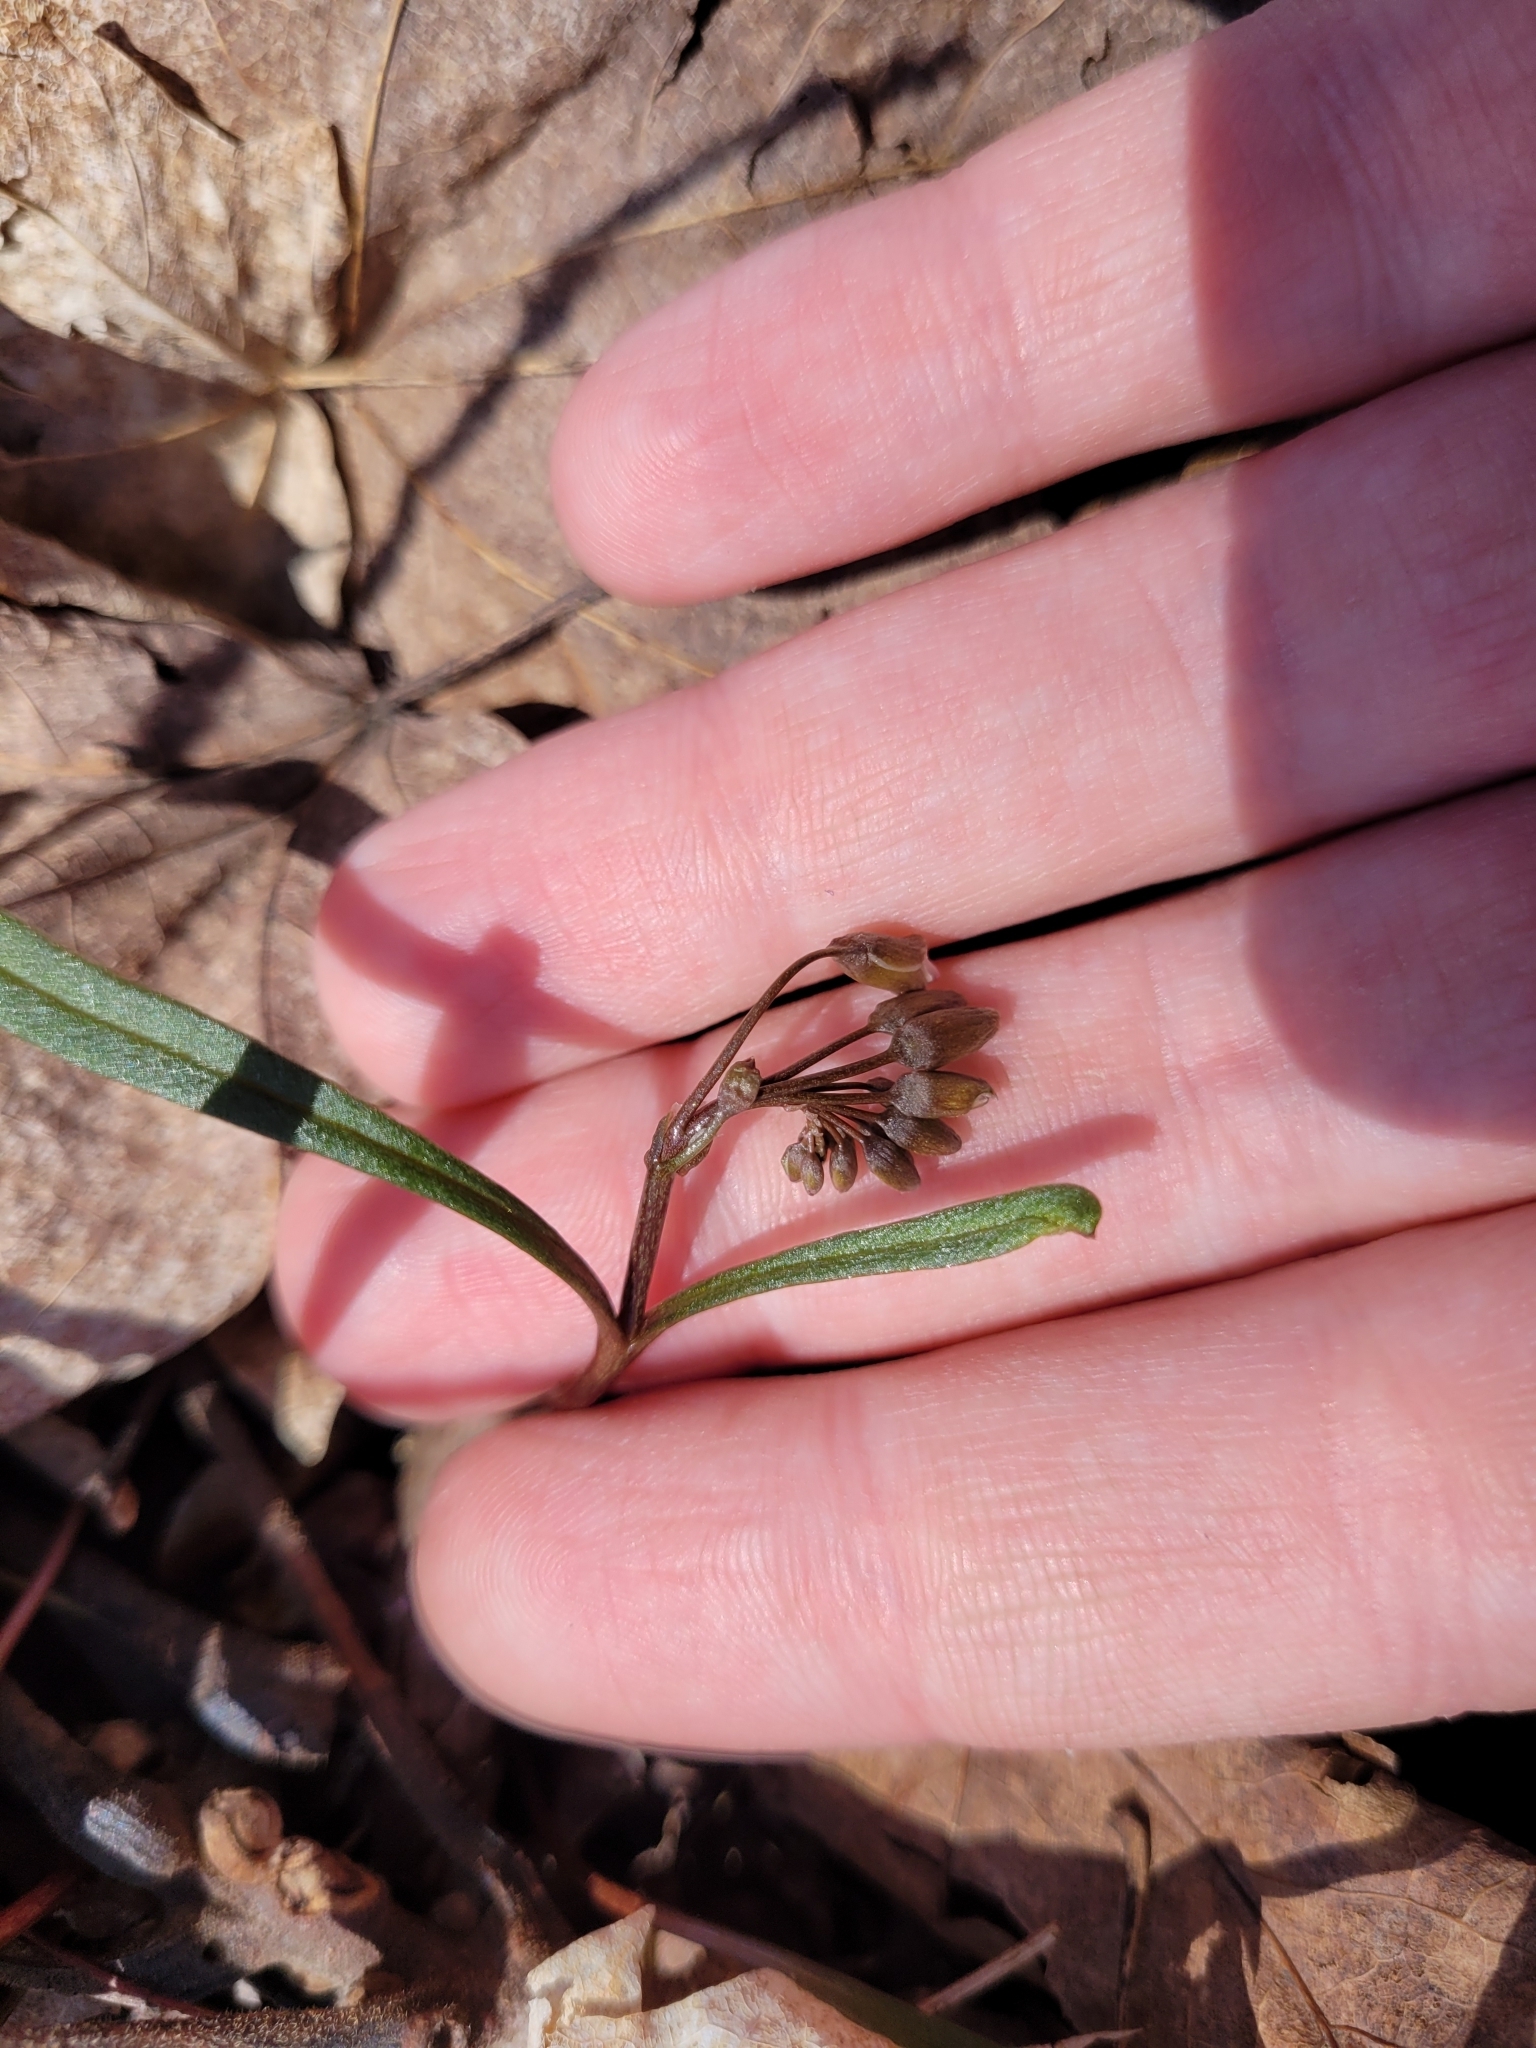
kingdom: Plantae
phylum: Tracheophyta
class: Magnoliopsida
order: Caryophyllales
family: Montiaceae
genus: Claytonia
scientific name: Claytonia virginica
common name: Virginia springbeauty
